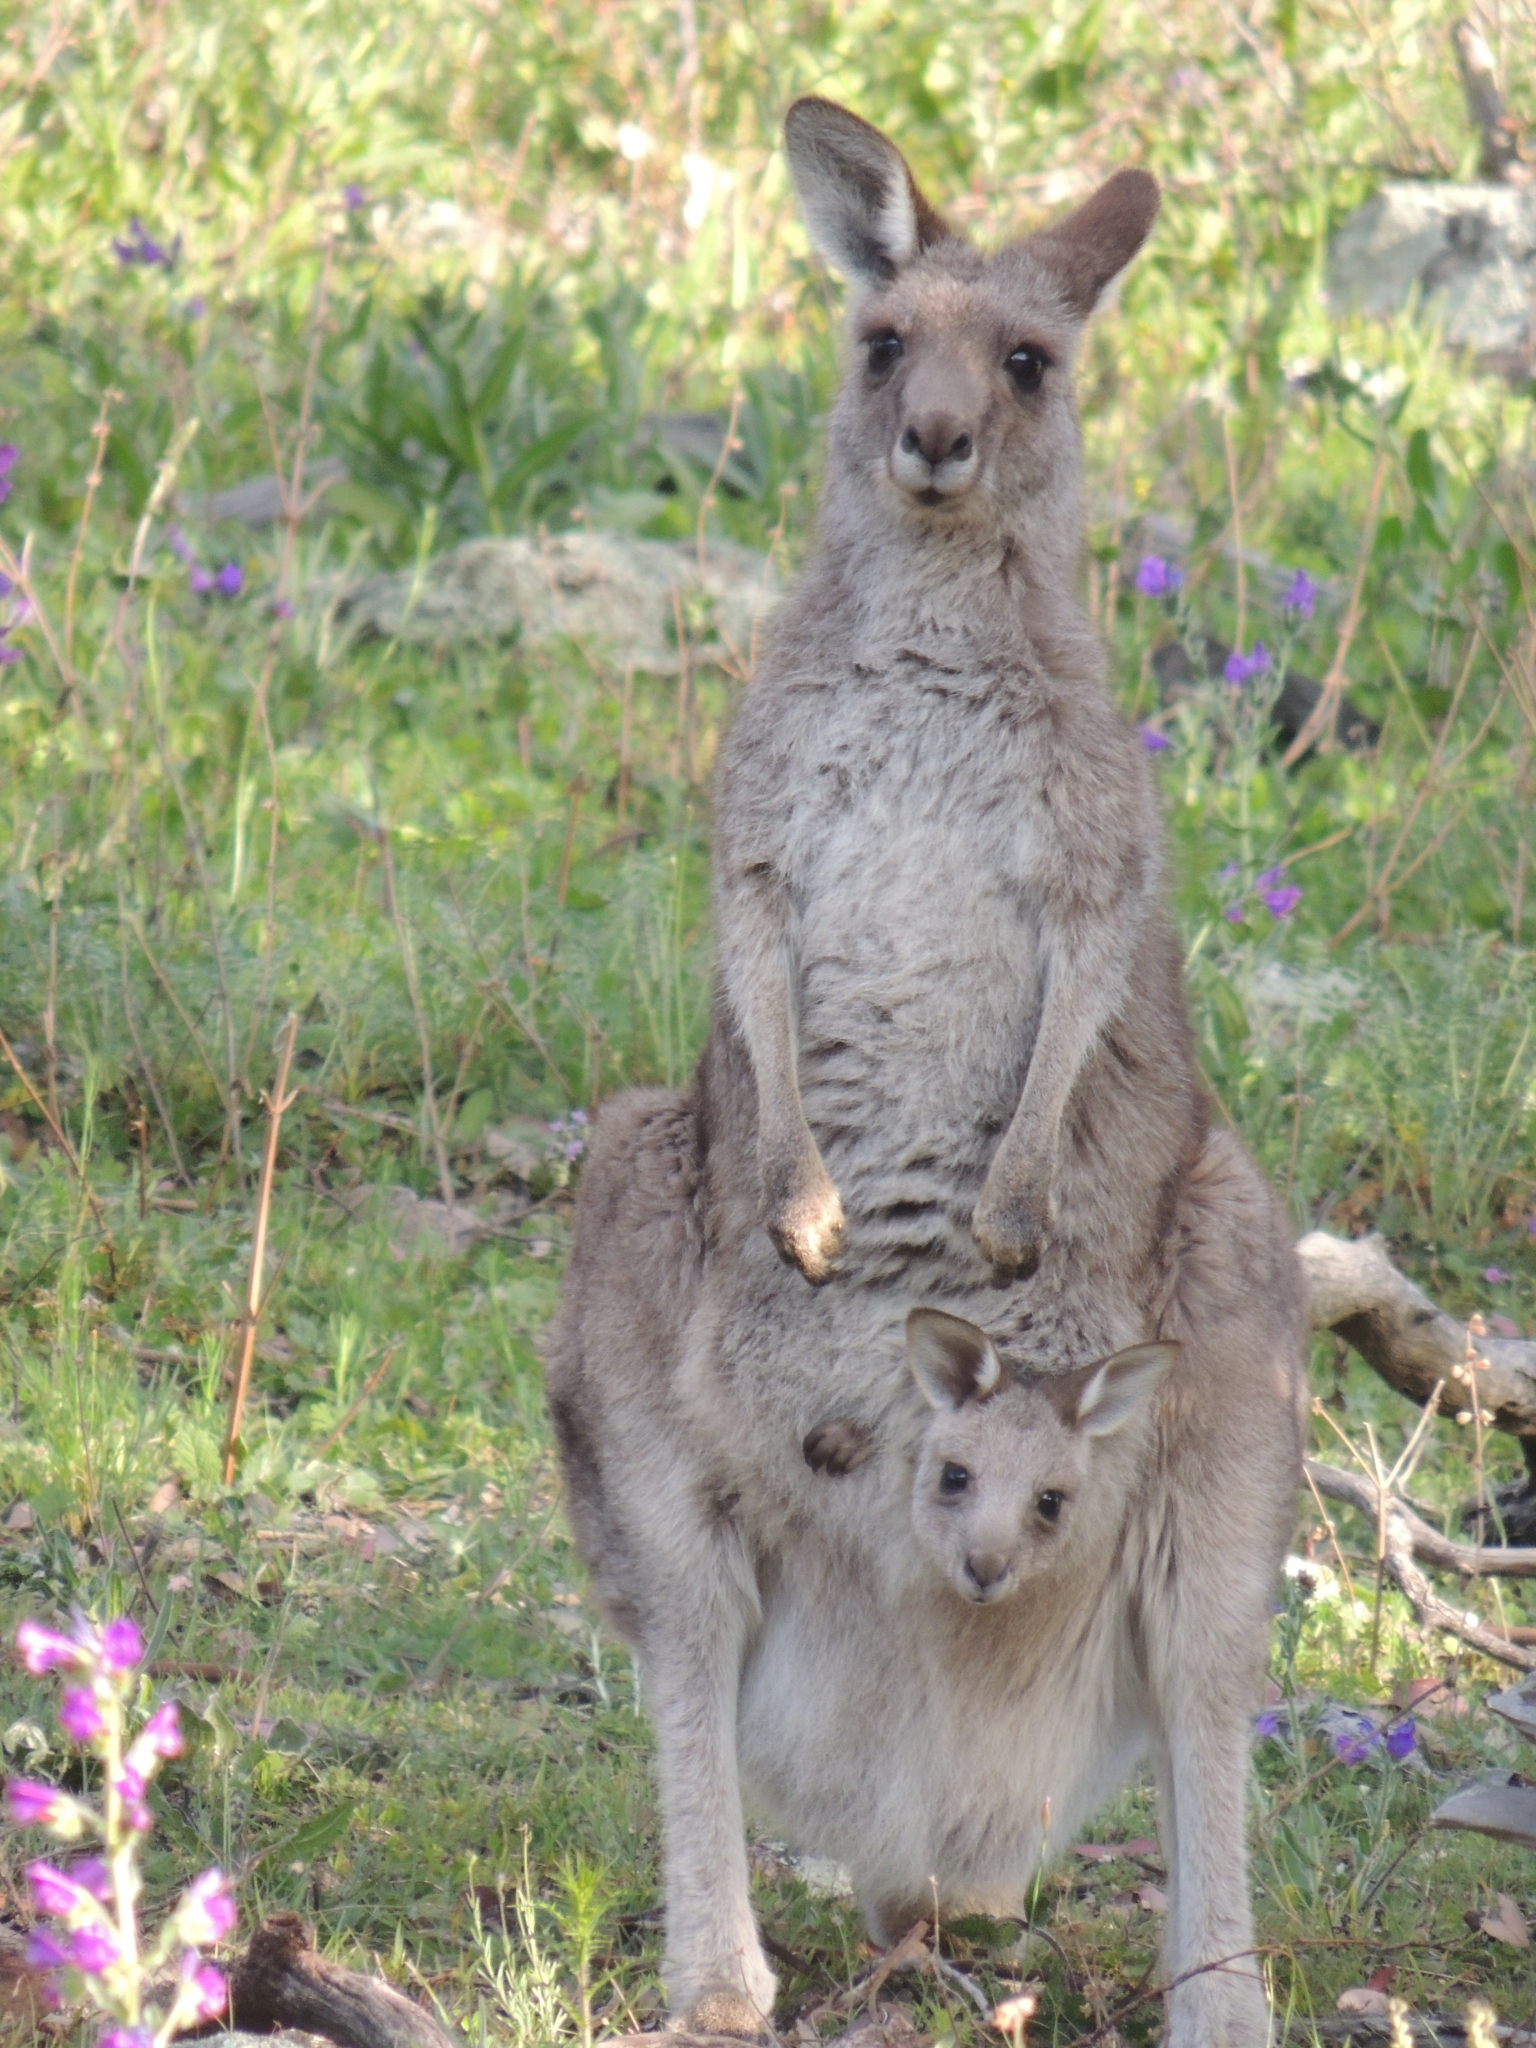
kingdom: Animalia
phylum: Chordata
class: Mammalia
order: Diprotodontia
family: Macropodidae
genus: Macropus
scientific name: Macropus giganteus
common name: Eastern grey kangaroo
